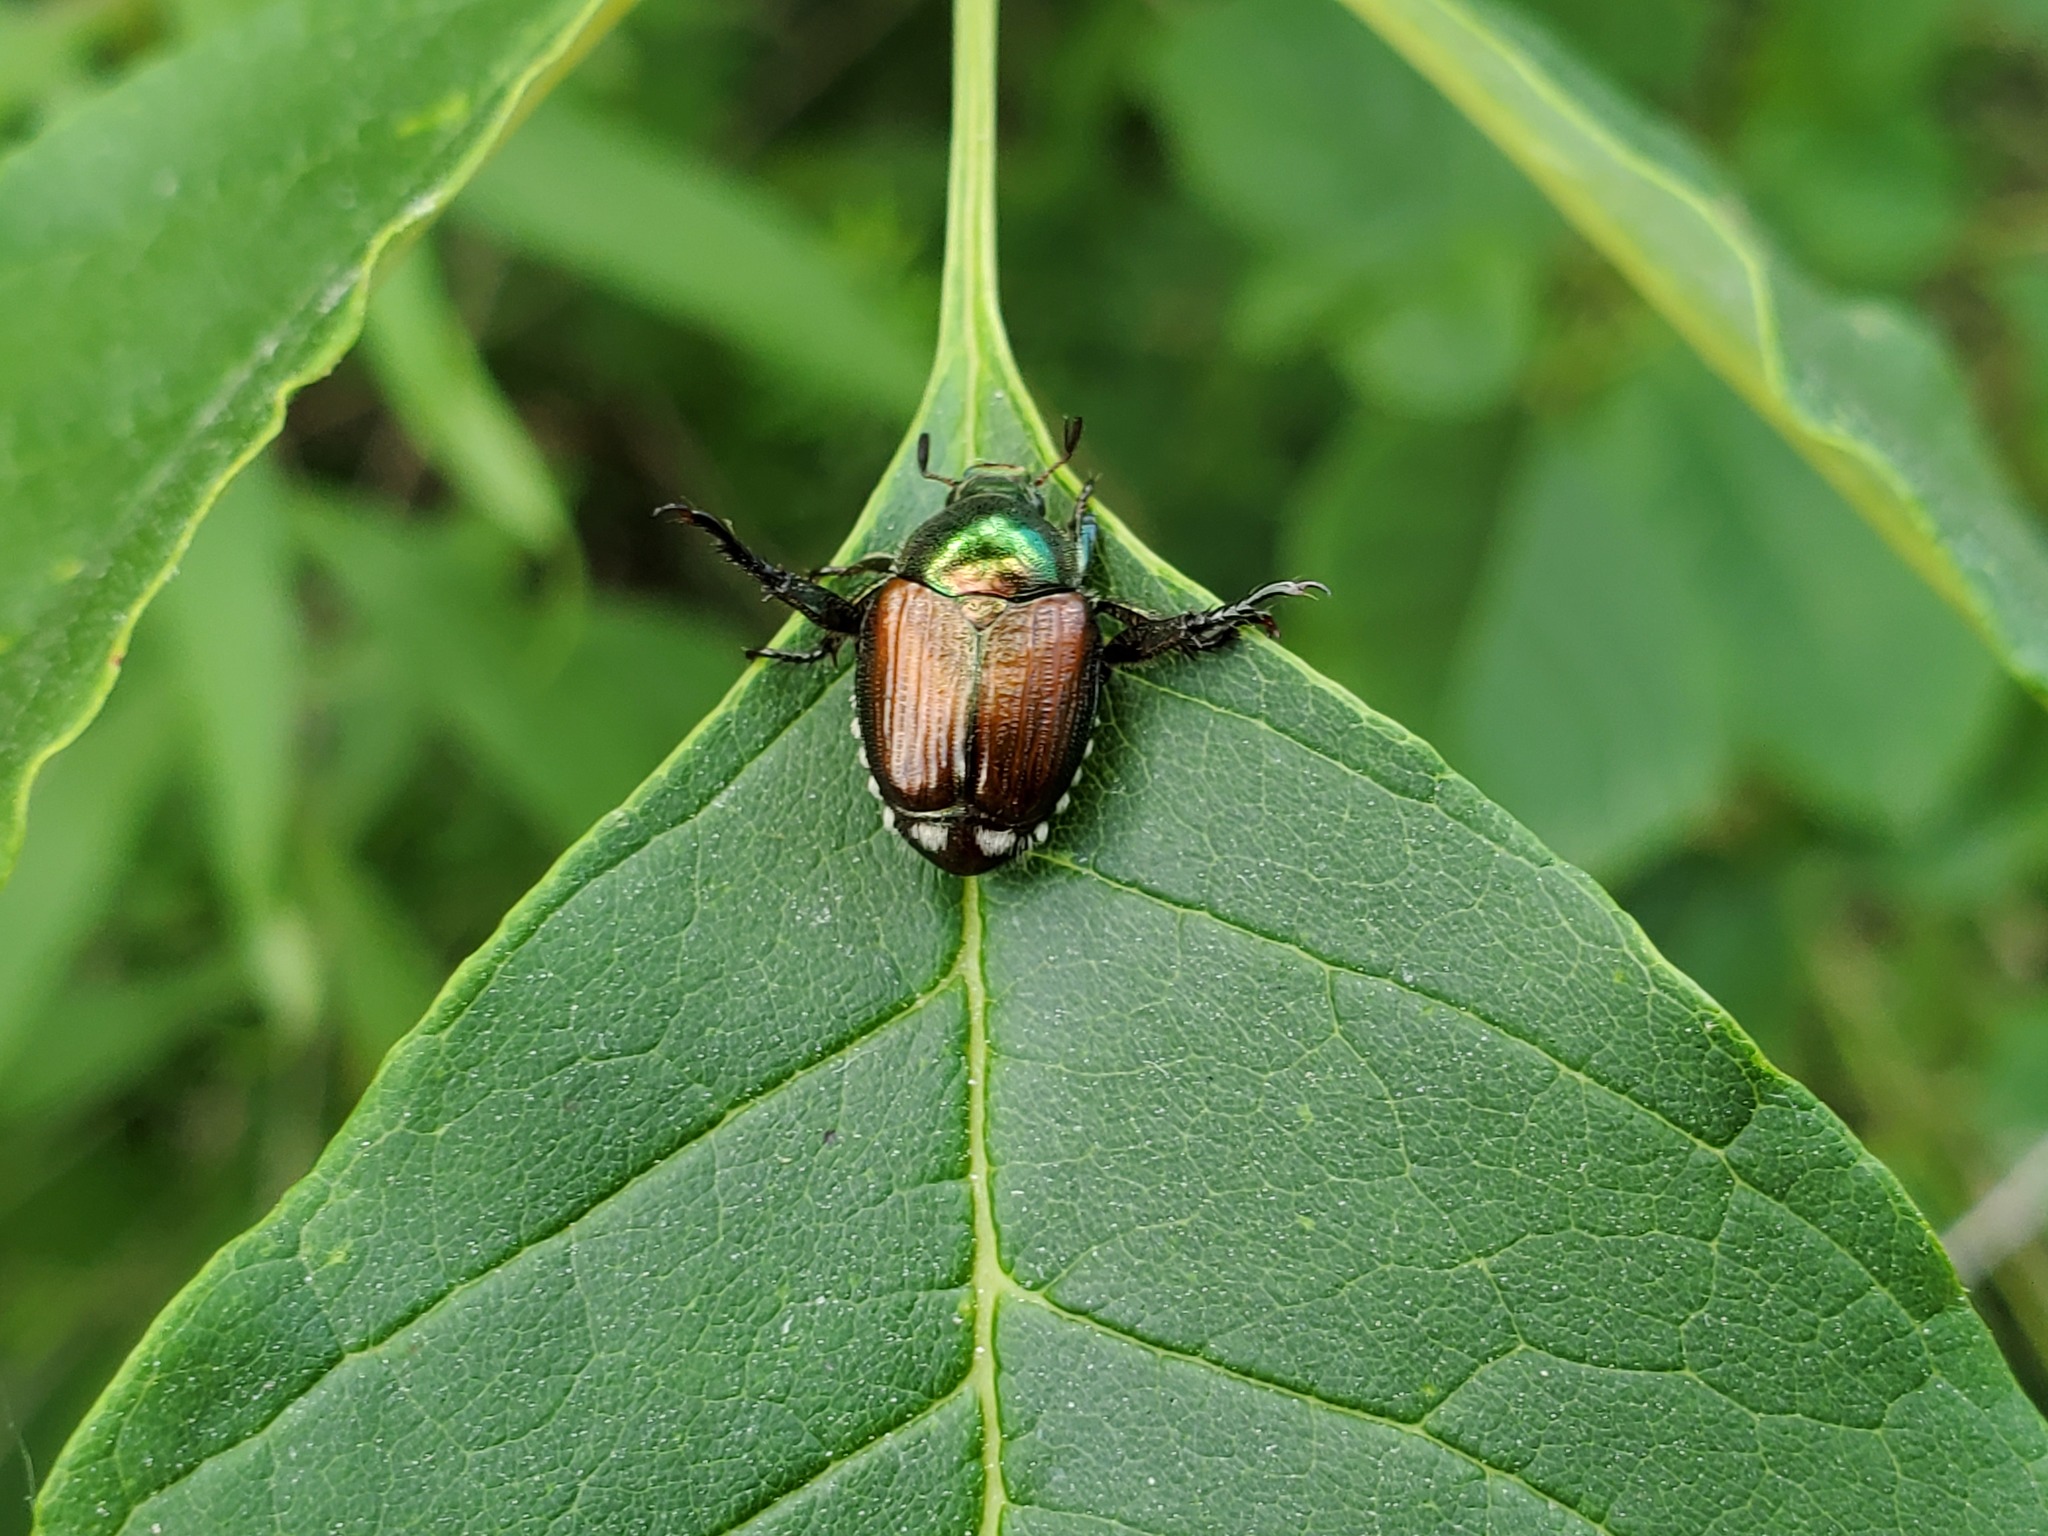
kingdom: Animalia
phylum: Arthropoda
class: Insecta
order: Coleoptera
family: Scarabaeidae
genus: Popillia
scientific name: Popillia japonica
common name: Japanese beetle
